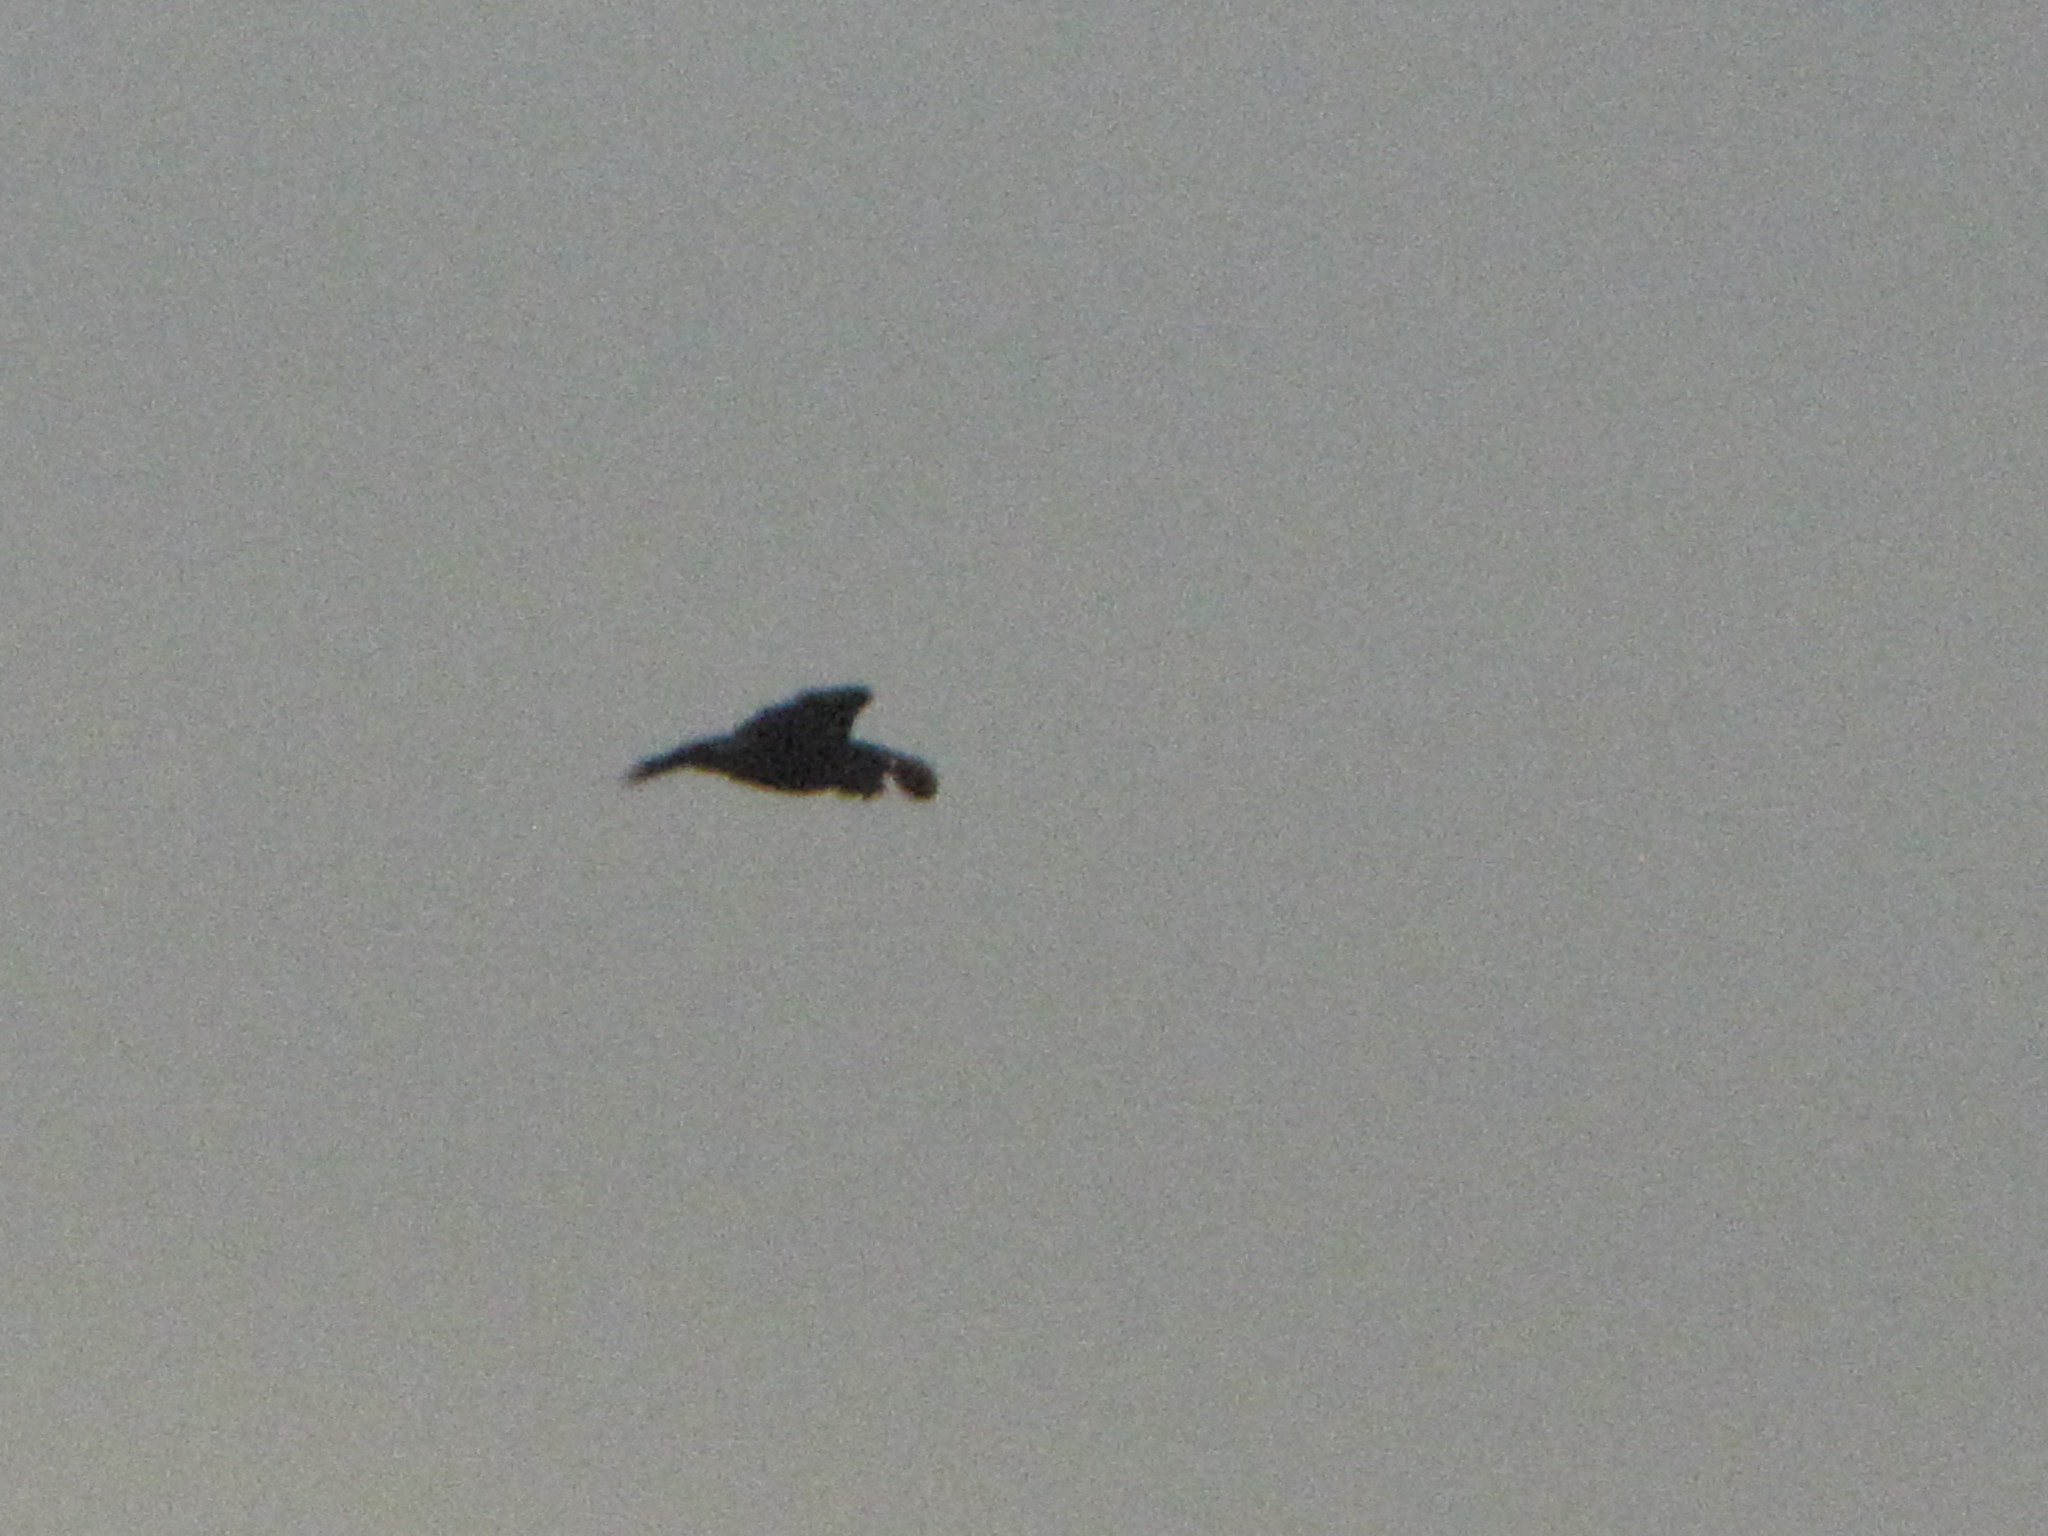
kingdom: Animalia
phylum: Chordata
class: Aves
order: Passeriformes
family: Corvidae
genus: Corvus
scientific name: Corvus corax
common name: Common raven
